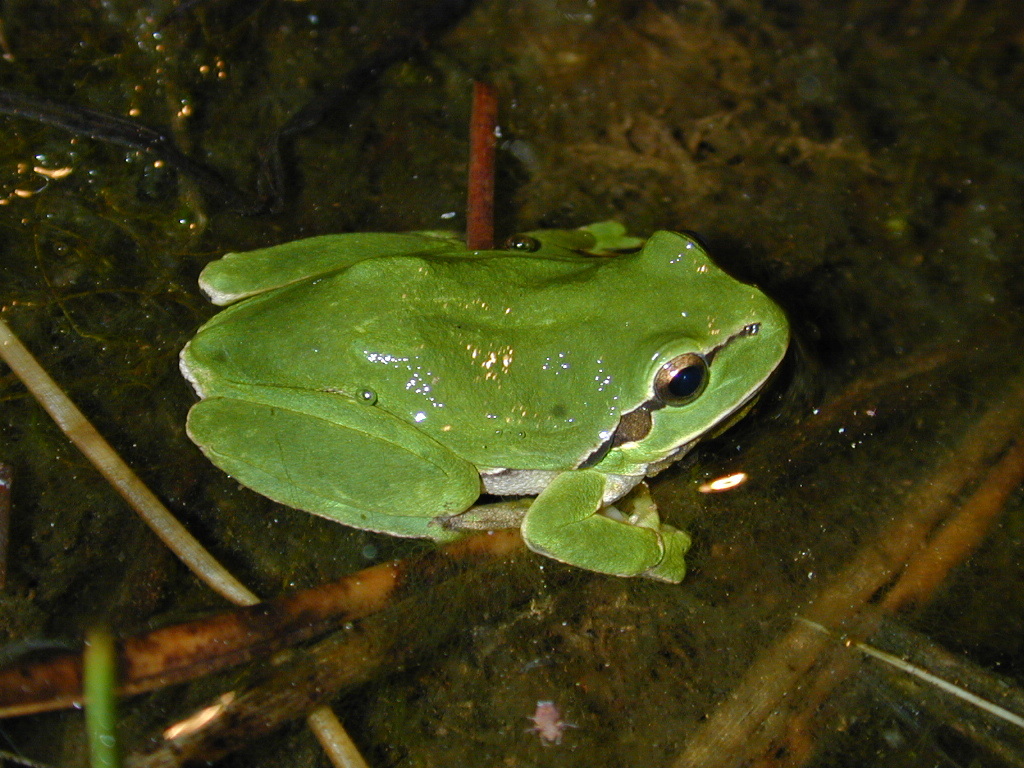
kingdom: Animalia
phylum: Chordata
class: Amphibia
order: Anura
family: Hylidae
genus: Hyla
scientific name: Hyla arborea
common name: Common tree frog
